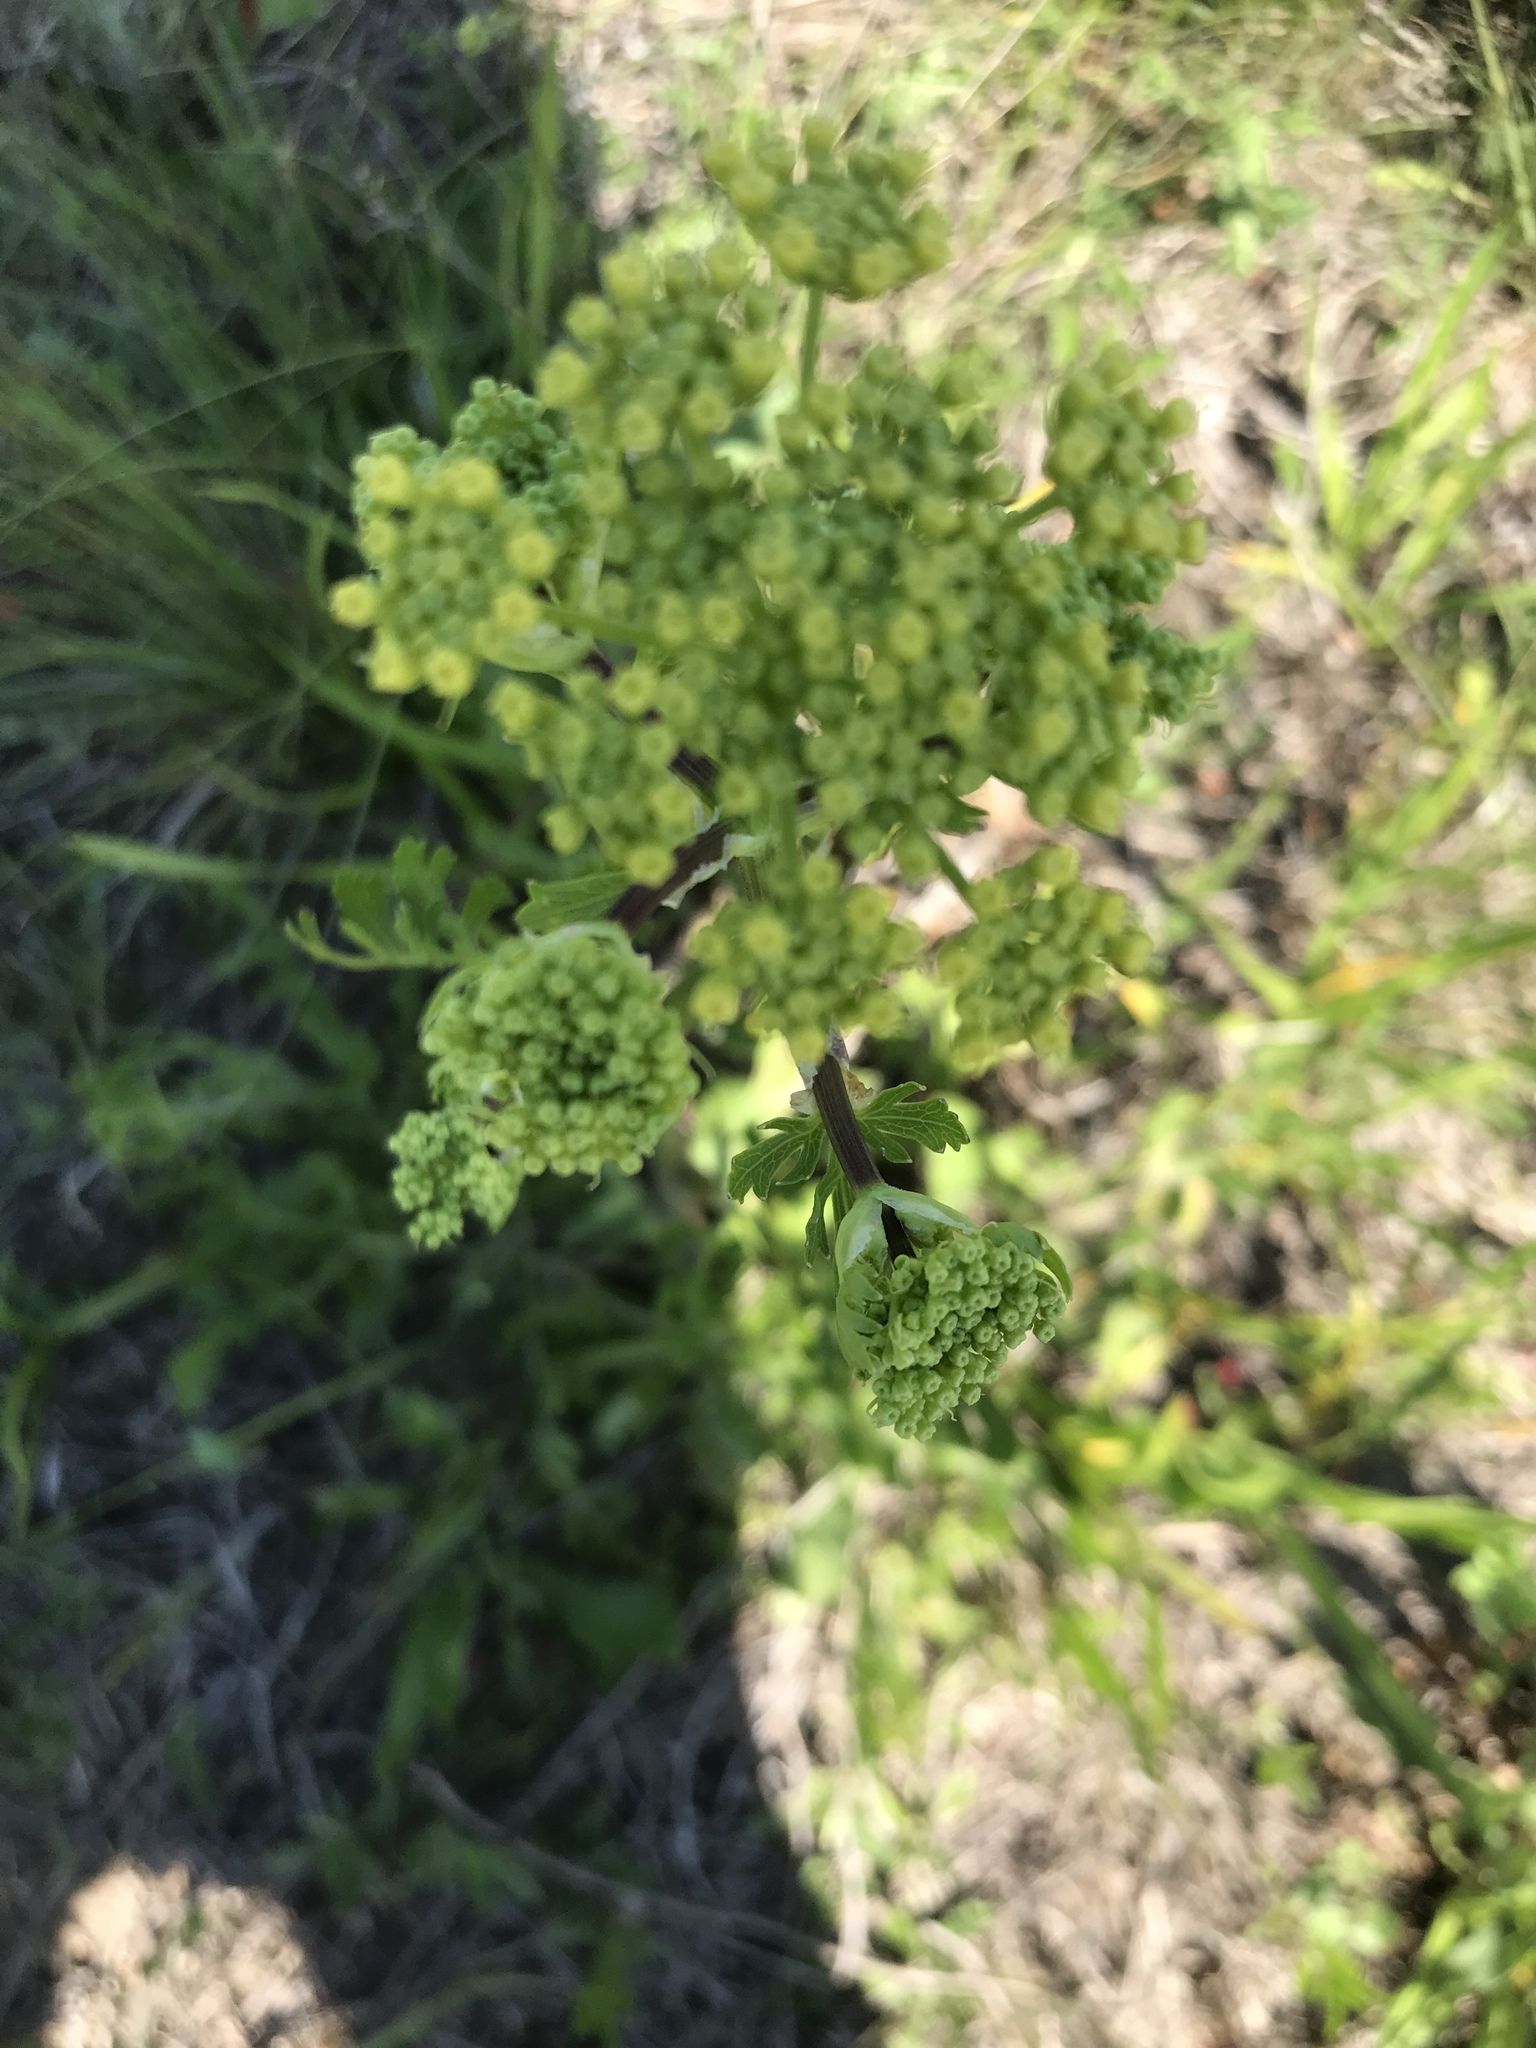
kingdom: Plantae
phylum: Tracheophyta
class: Magnoliopsida
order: Apiales
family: Apiaceae
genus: Polytaenia
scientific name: Polytaenia texana
